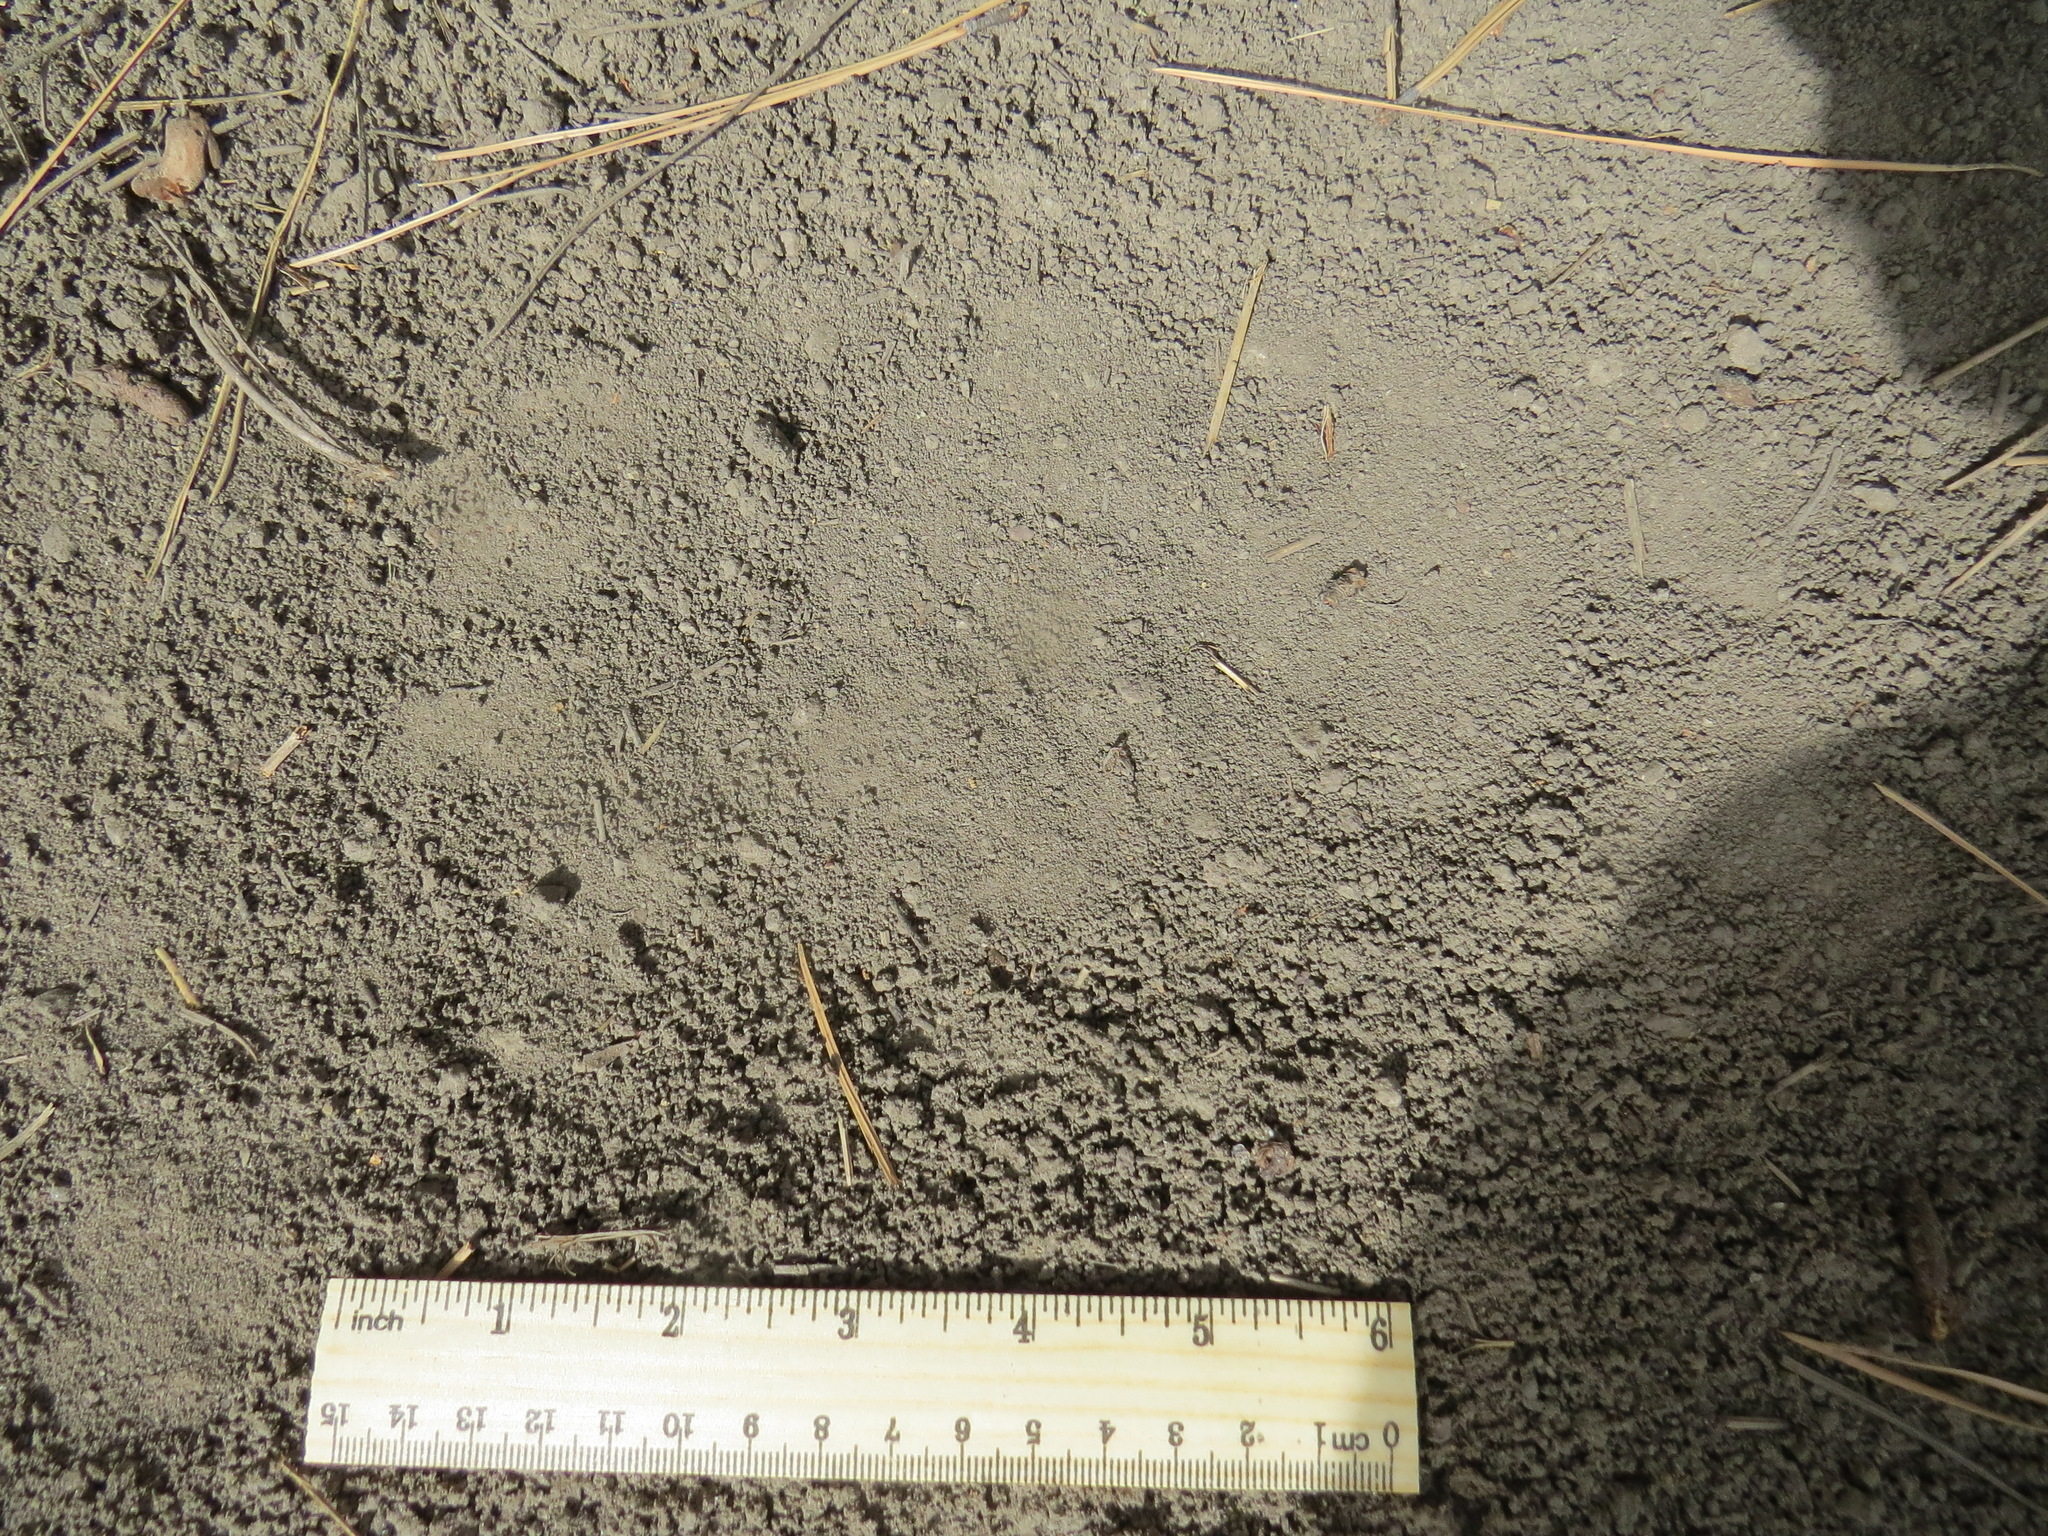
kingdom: Animalia
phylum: Chordata
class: Mammalia
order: Carnivora
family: Ursidae
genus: Ursus
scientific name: Ursus americanus
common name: American black bear
